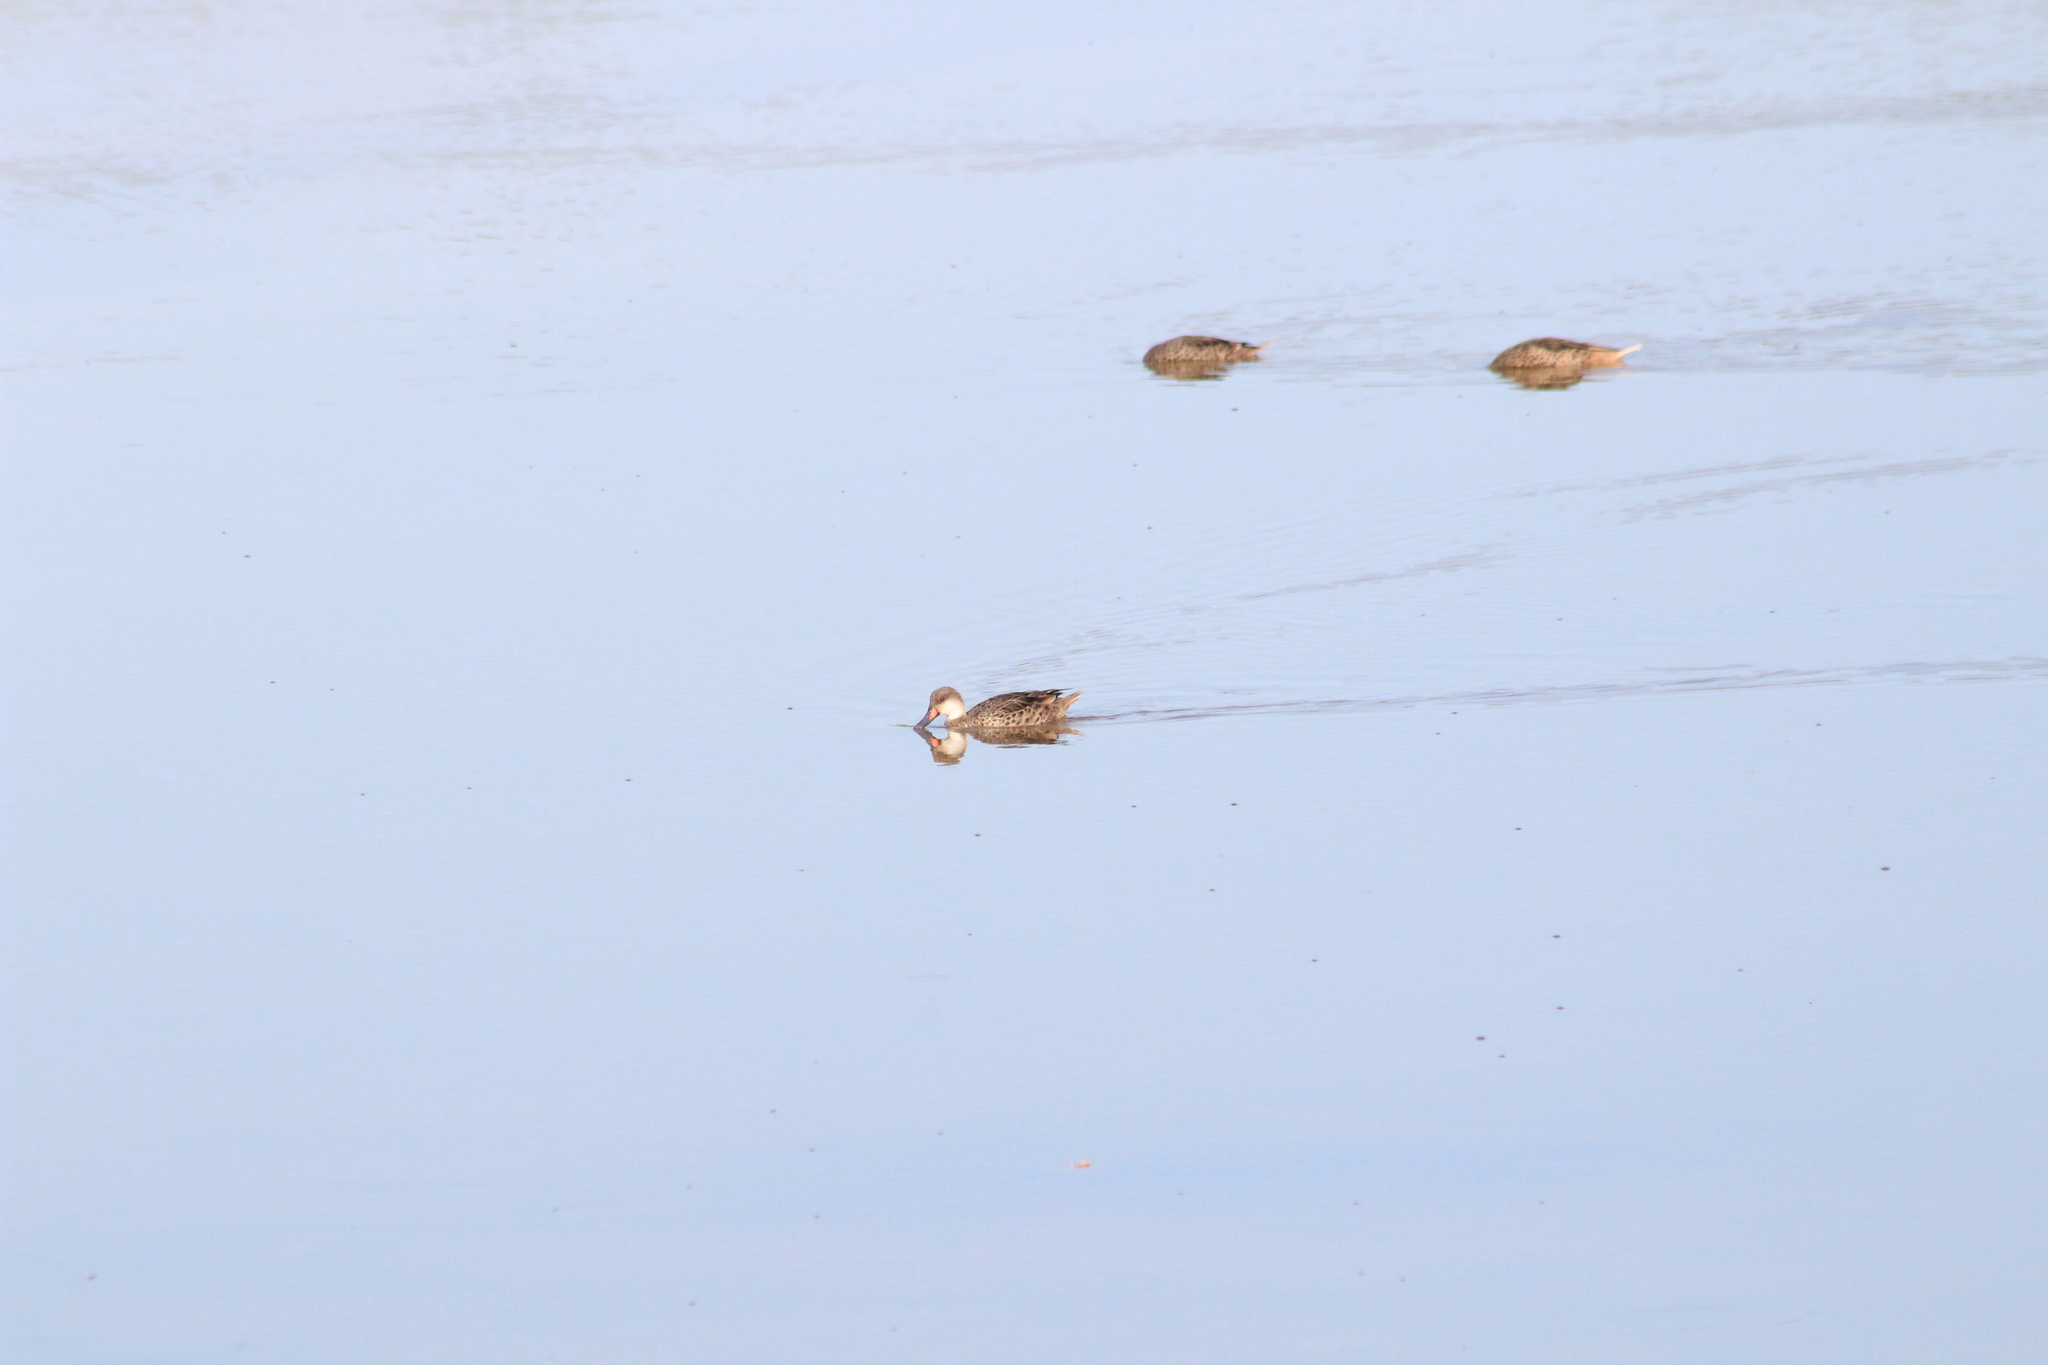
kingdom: Animalia
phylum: Chordata
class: Aves
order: Anseriformes
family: Anatidae
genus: Anas
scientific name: Anas bahamensis
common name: White-cheeked pintail
